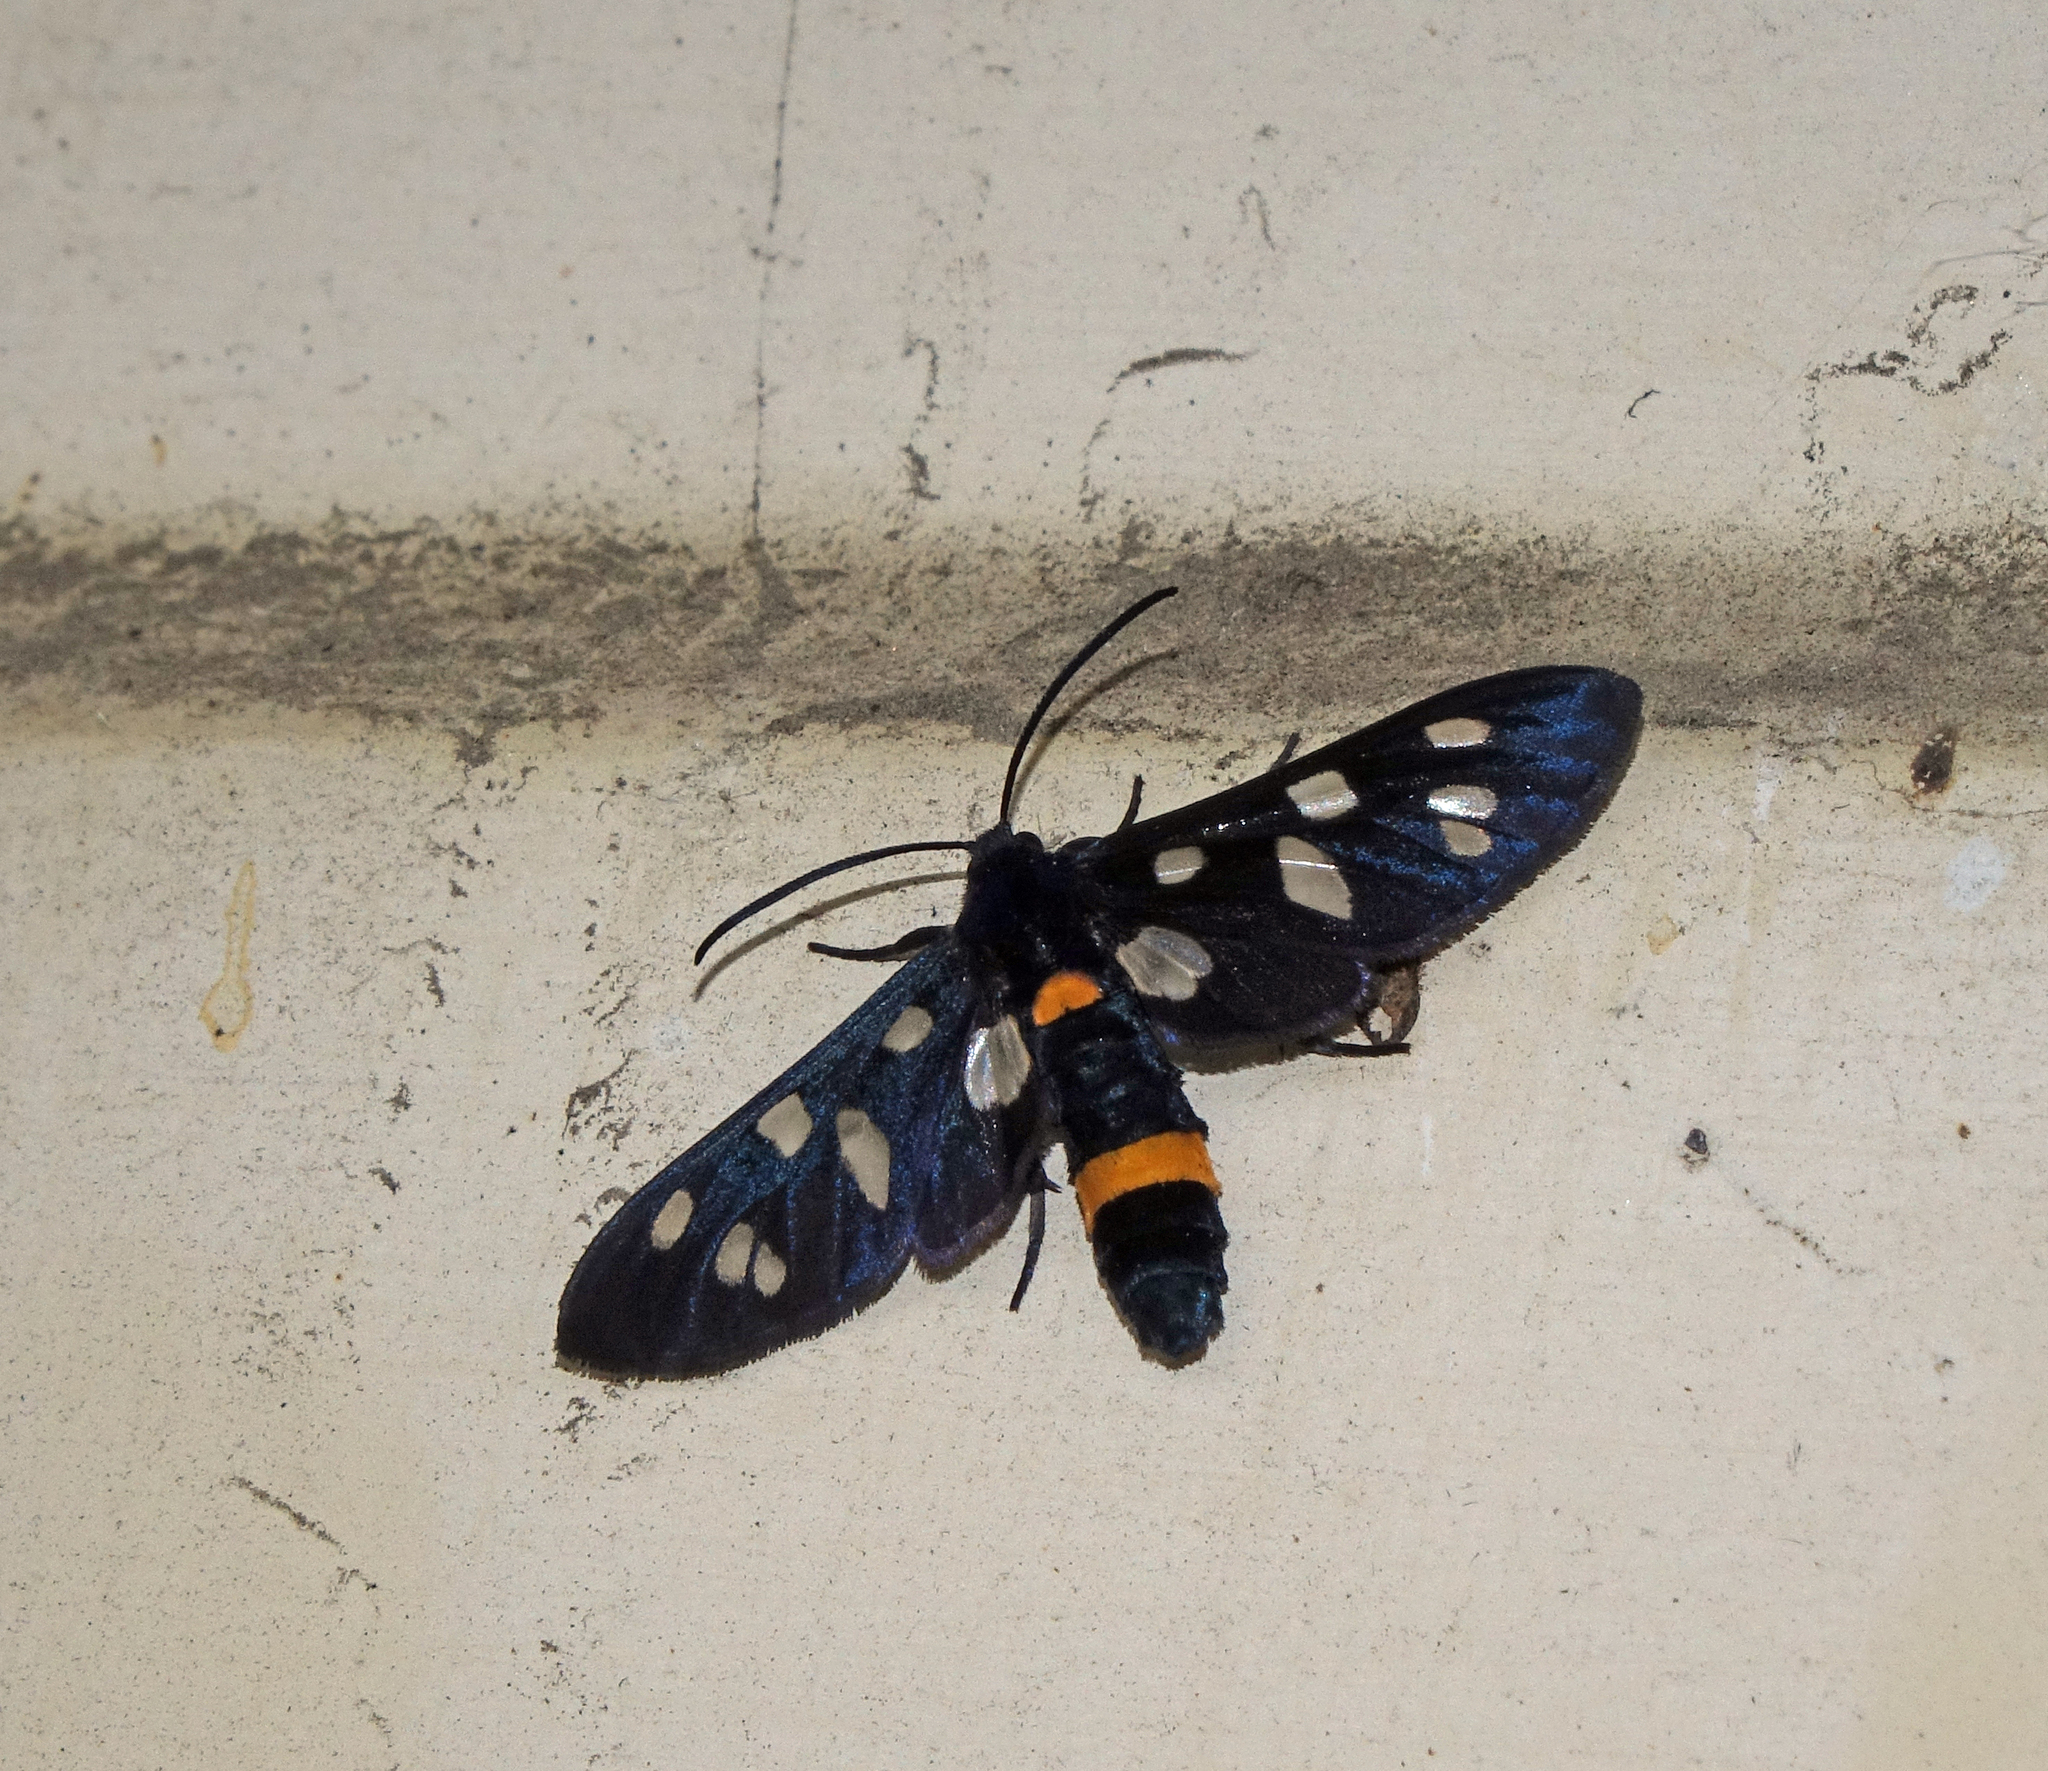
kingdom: Animalia
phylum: Arthropoda
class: Insecta
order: Lepidoptera
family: Erebidae
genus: Amata
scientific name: Amata nigricornis
